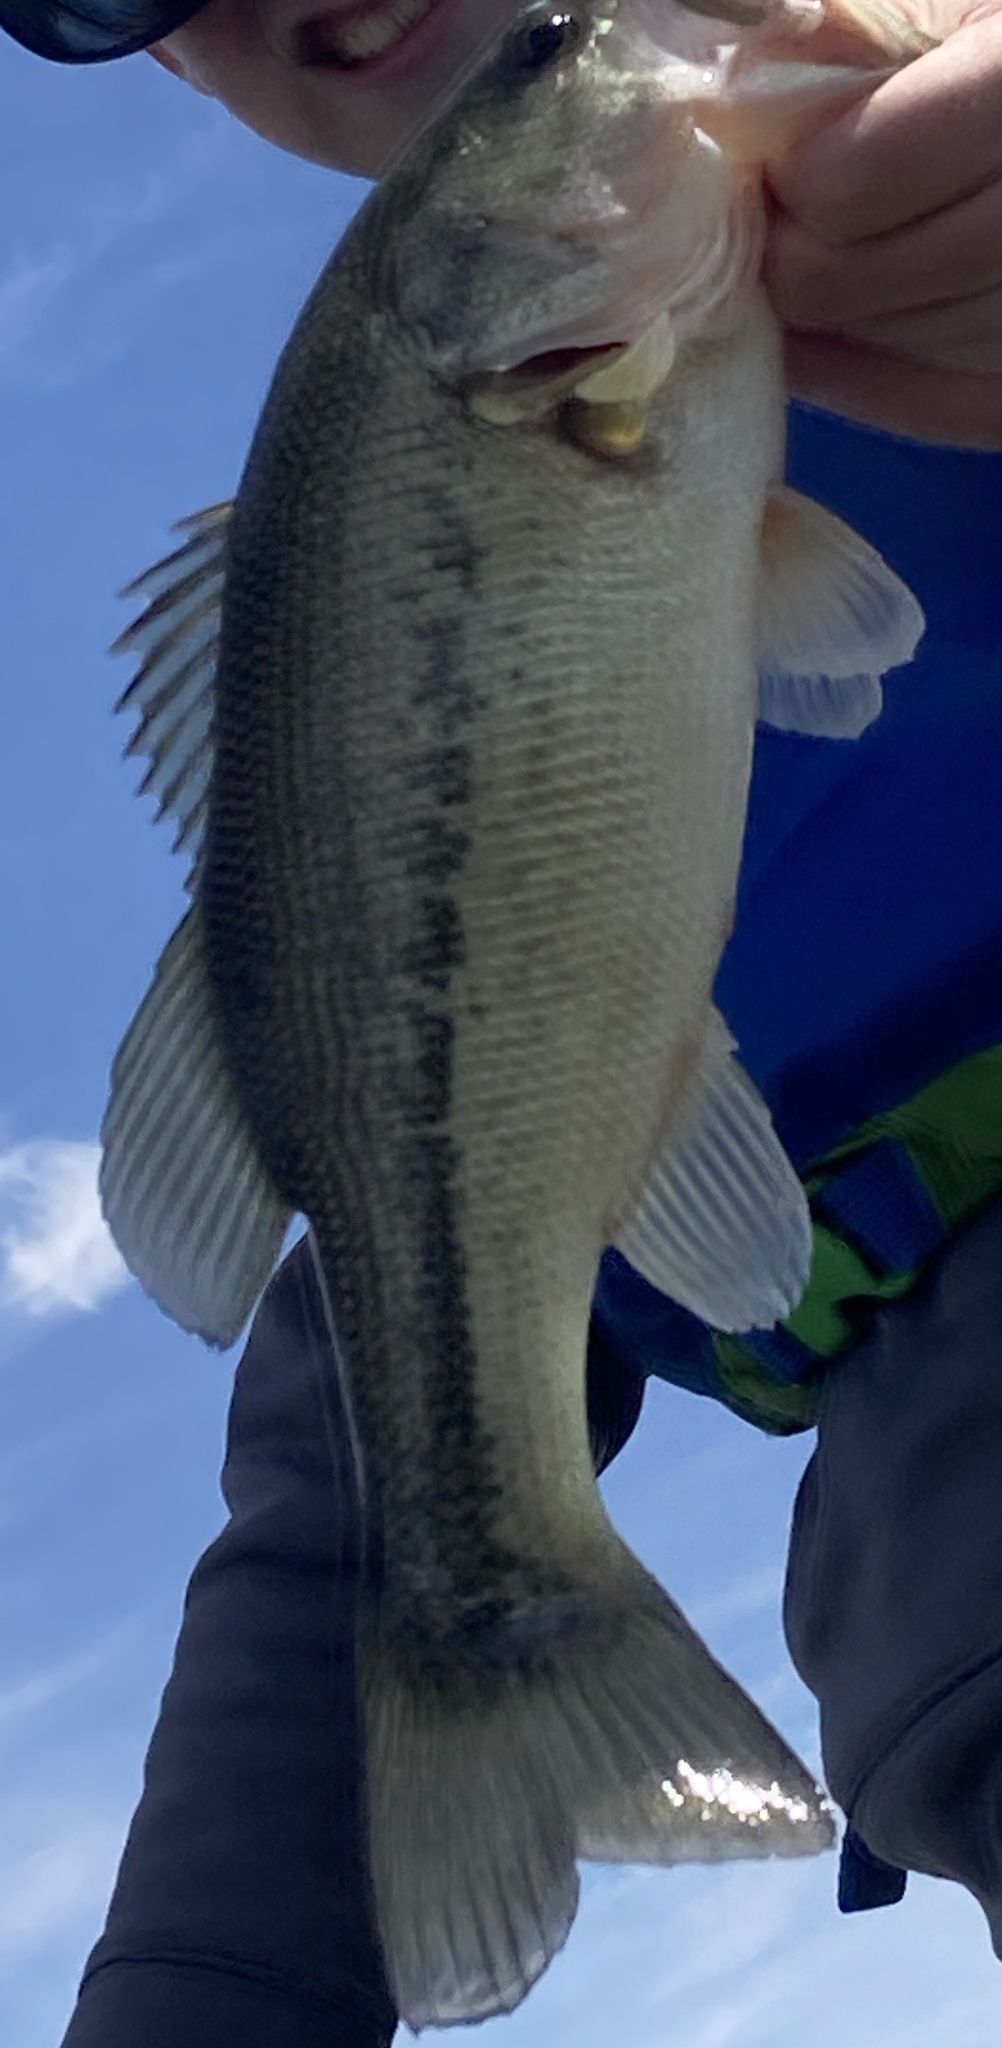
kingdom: Animalia
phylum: Chordata
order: Perciformes
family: Centrarchidae
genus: Micropterus
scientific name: Micropterus
